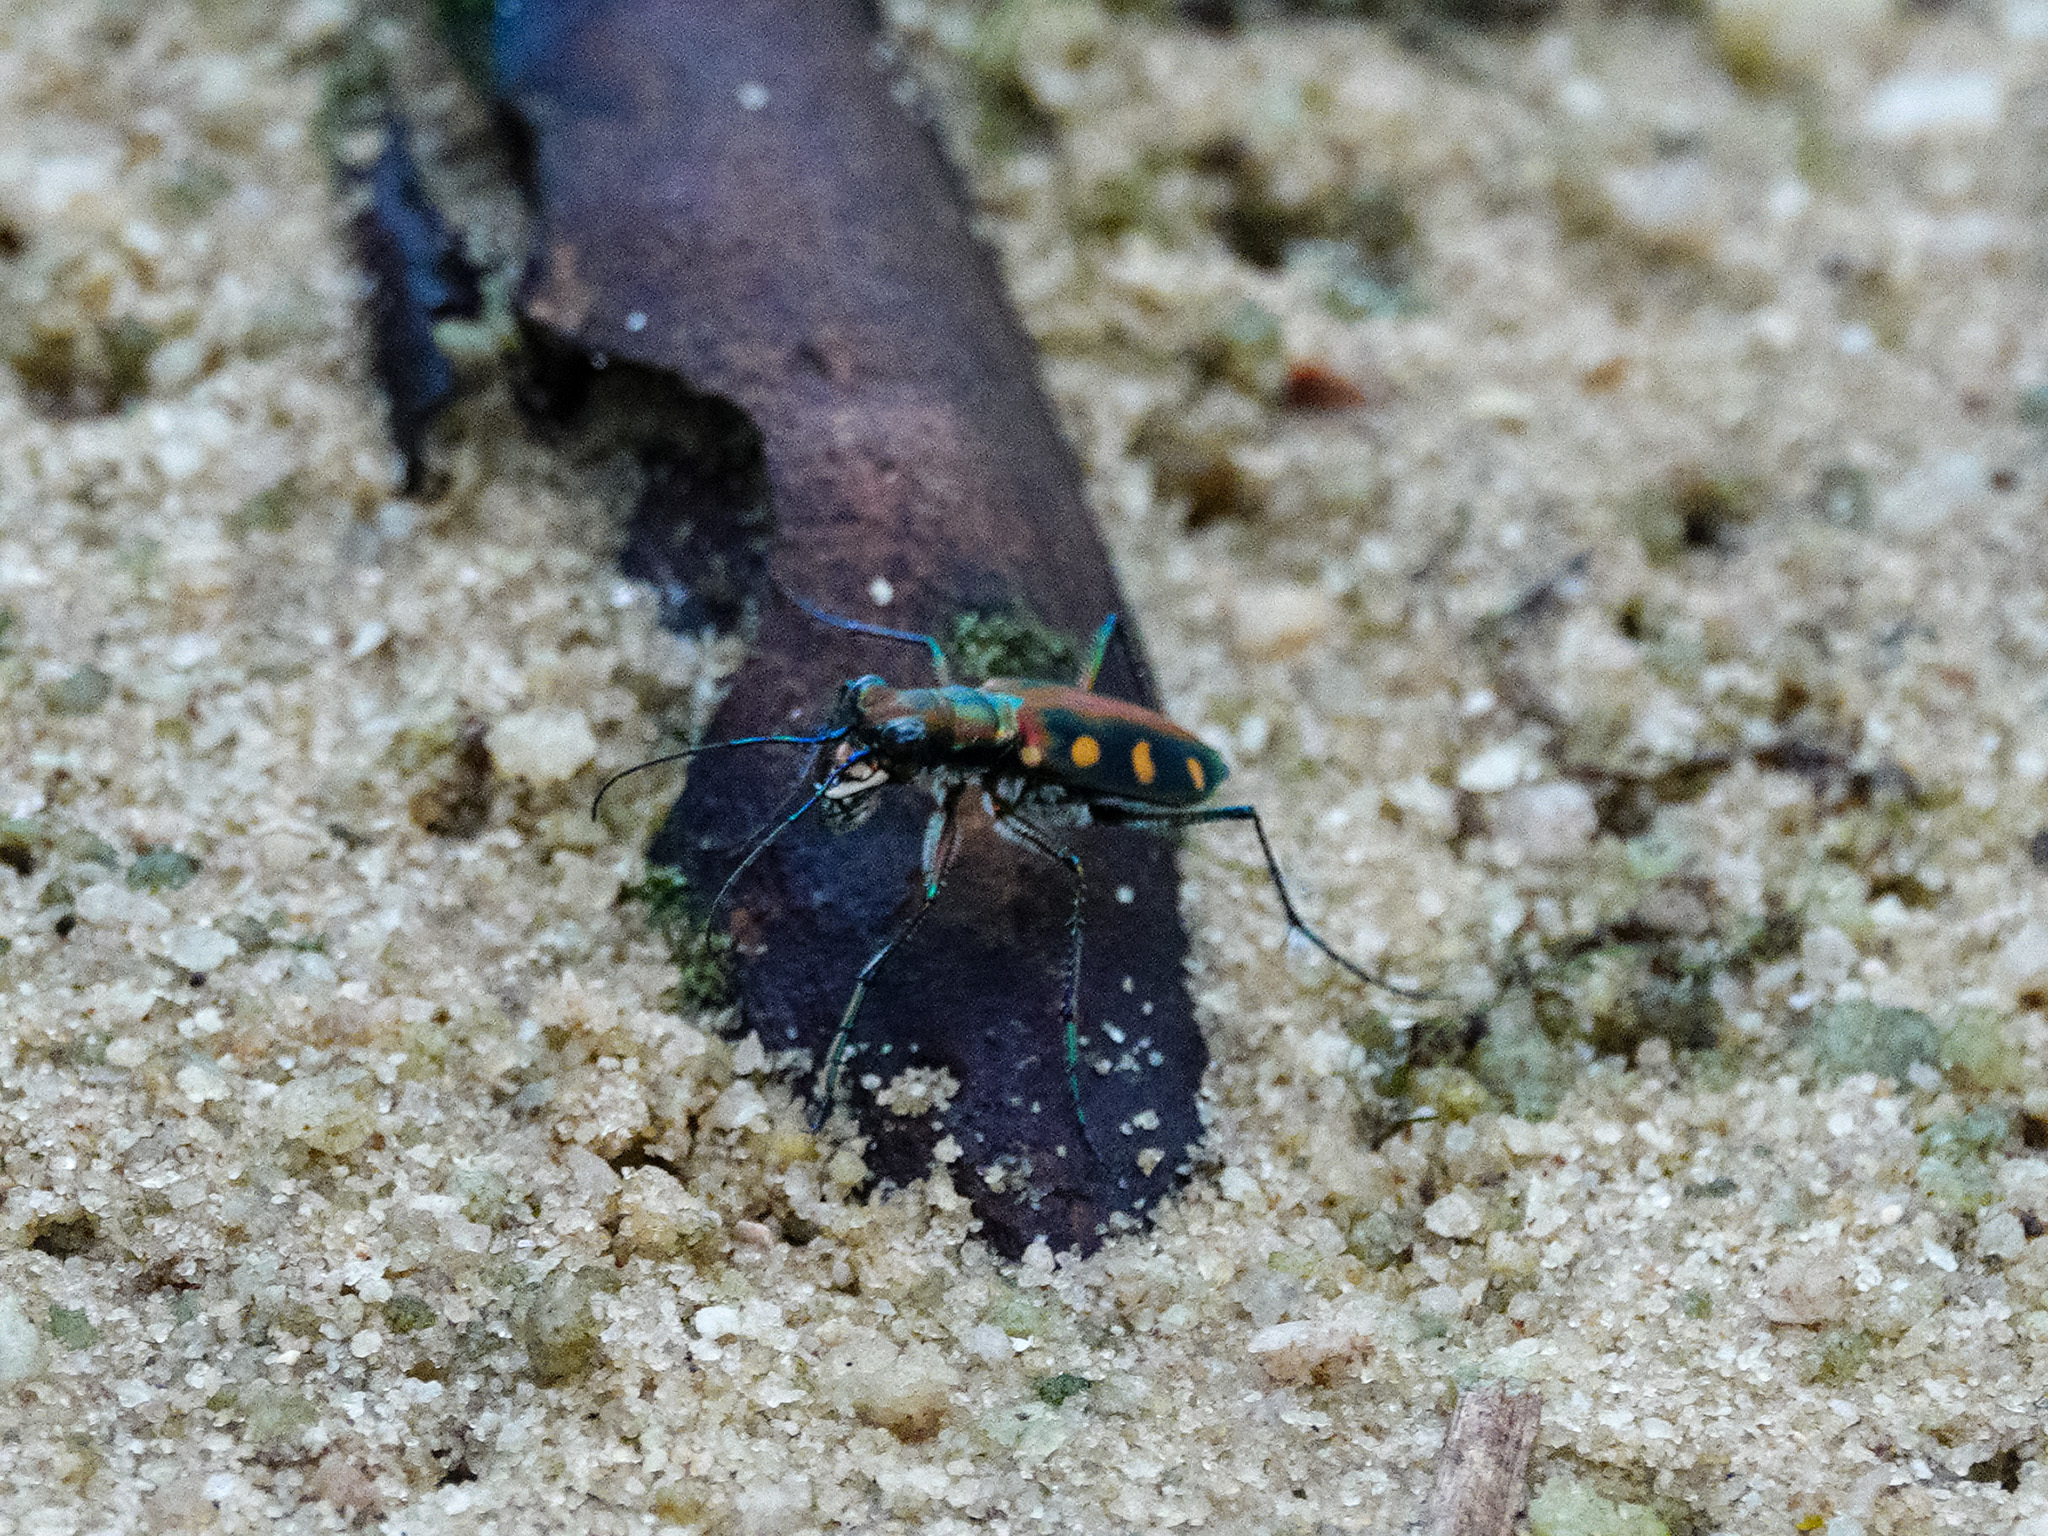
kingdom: Animalia
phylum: Arthropoda
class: Insecta
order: Coleoptera
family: Carabidae
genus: Cicindela
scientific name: Cicindela aurulenta
